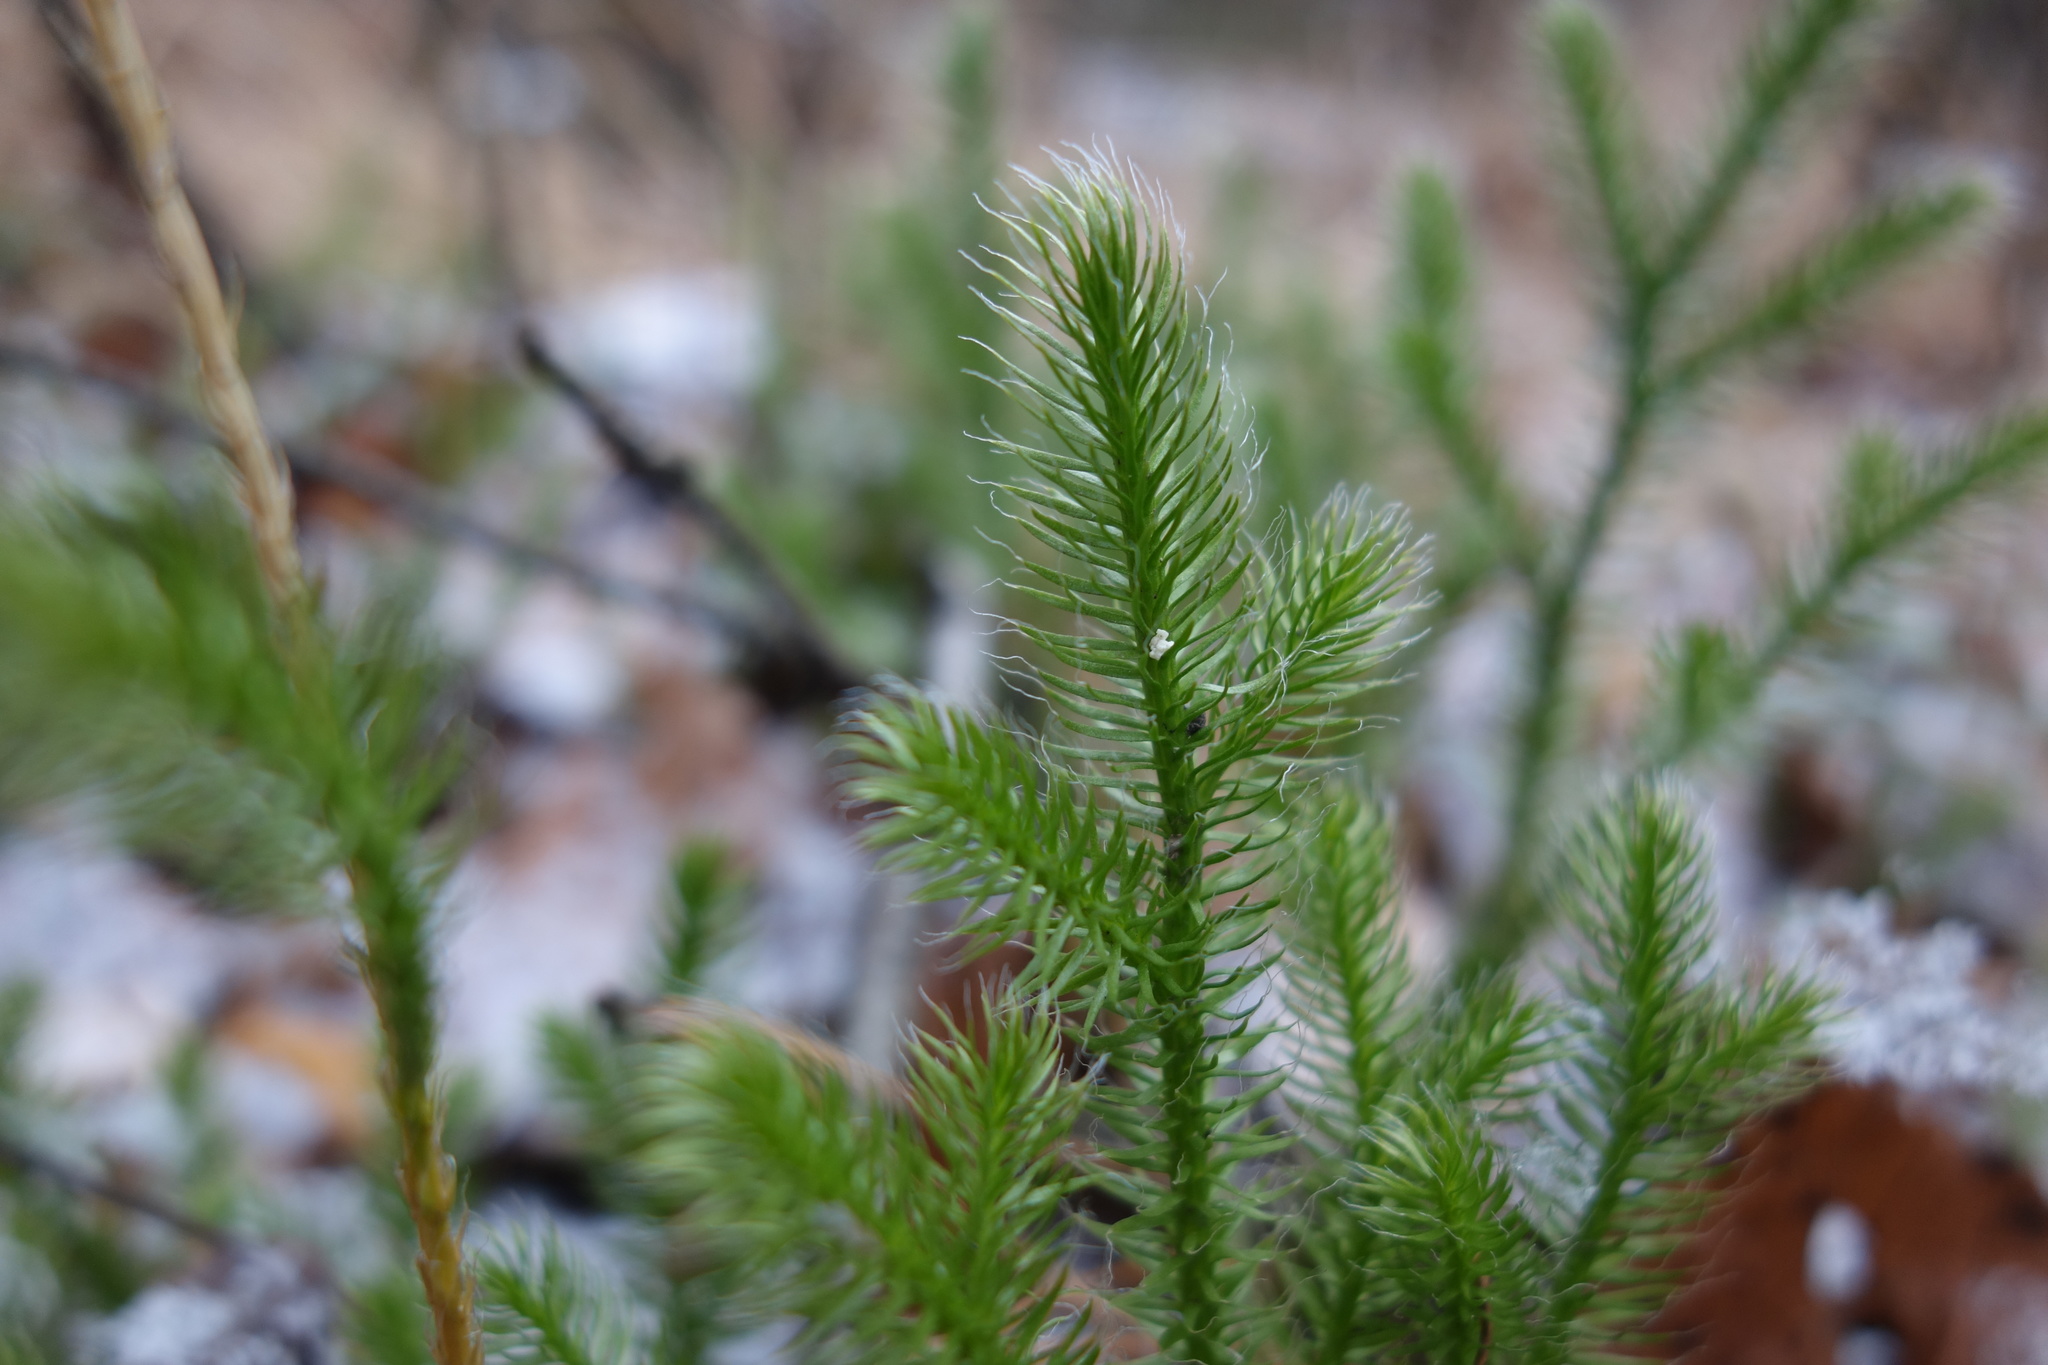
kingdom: Plantae
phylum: Tracheophyta
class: Lycopodiopsida
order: Lycopodiales
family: Lycopodiaceae
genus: Lycopodium
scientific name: Lycopodium clavatum
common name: Stag's-horn clubmoss
